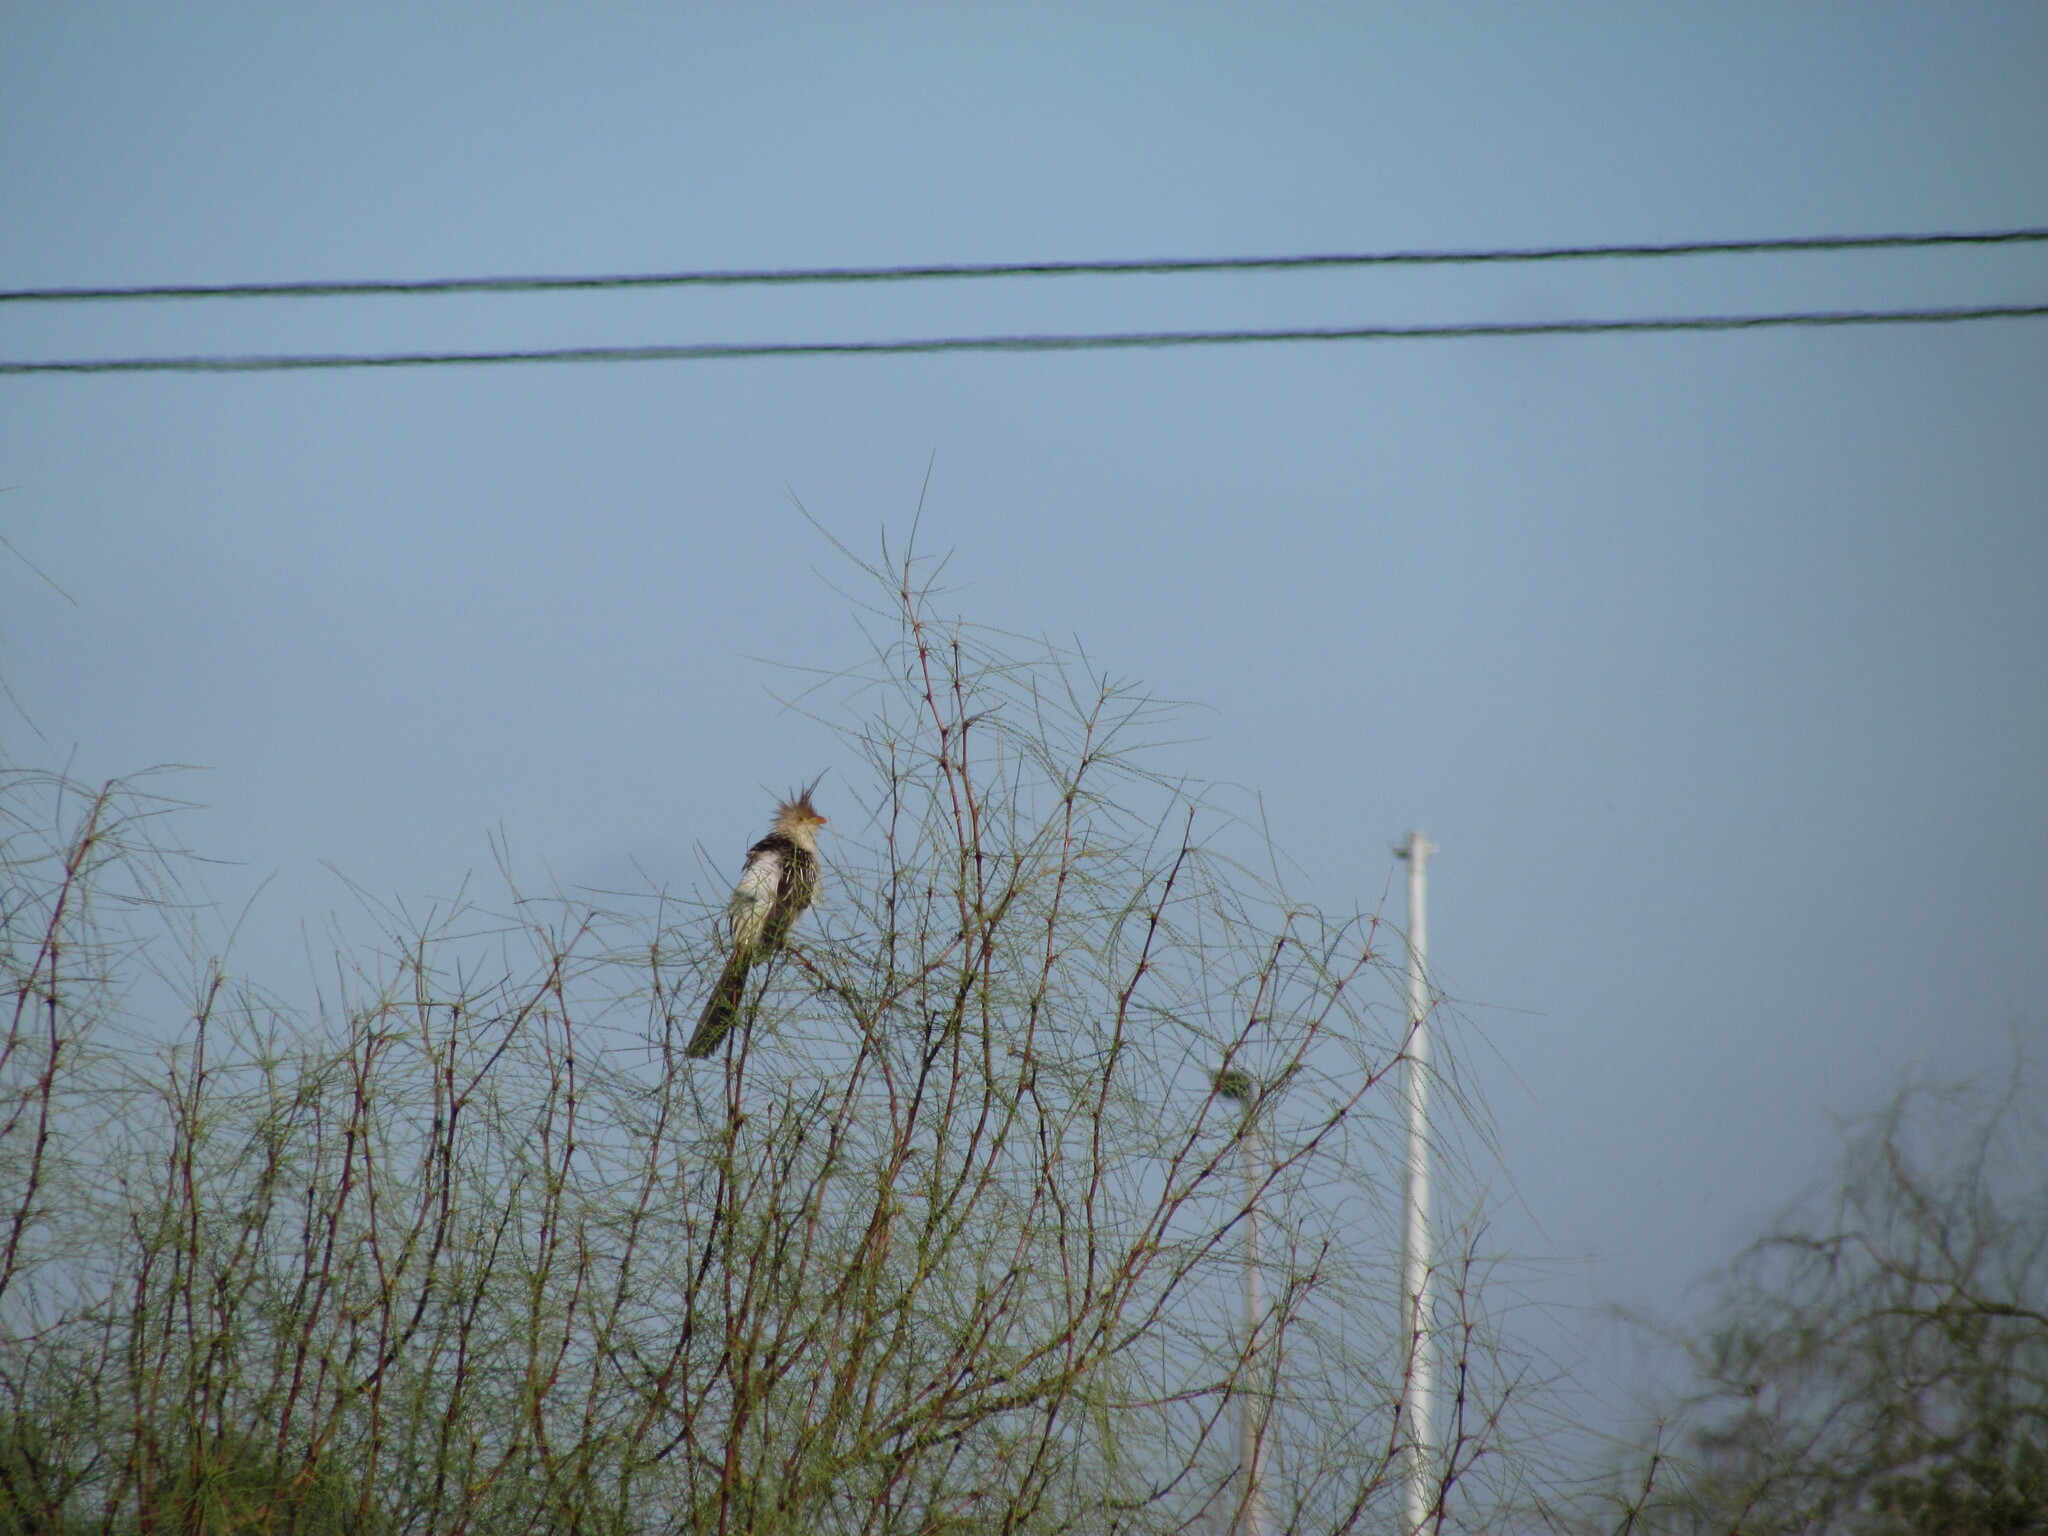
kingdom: Animalia
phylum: Chordata
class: Aves
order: Cuculiformes
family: Cuculidae
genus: Guira
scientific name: Guira guira
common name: Guira cuckoo
